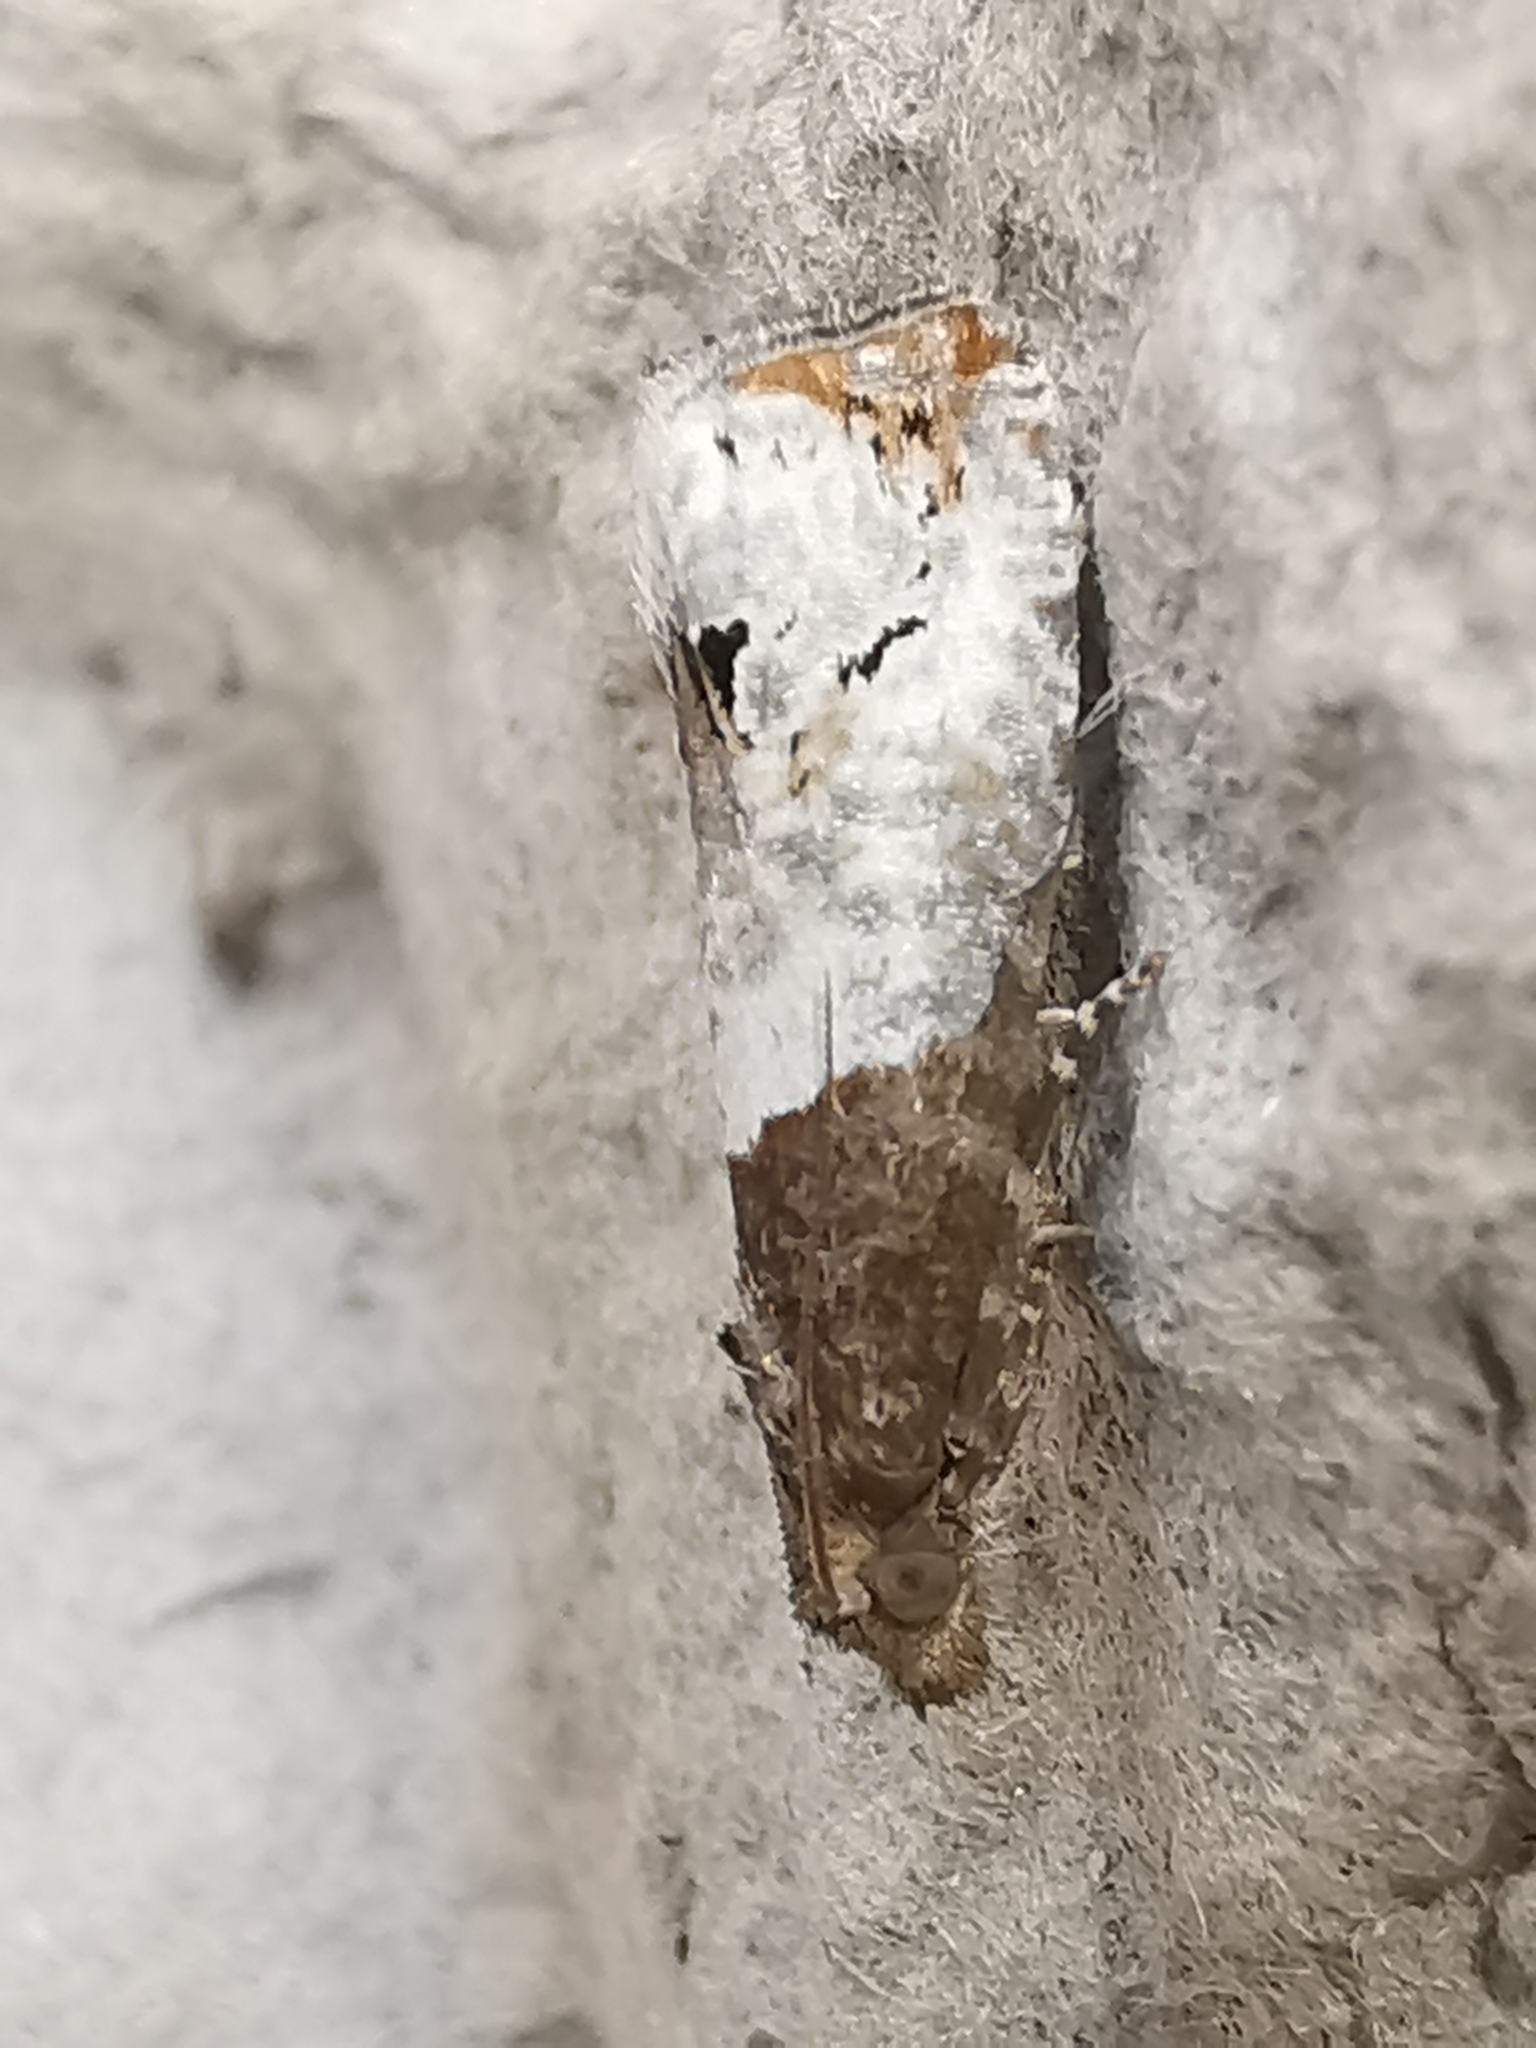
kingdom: Animalia
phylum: Arthropoda
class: Insecta
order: Lepidoptera
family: Tortricidae
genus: Epiblema
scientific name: Epiblema aquana
